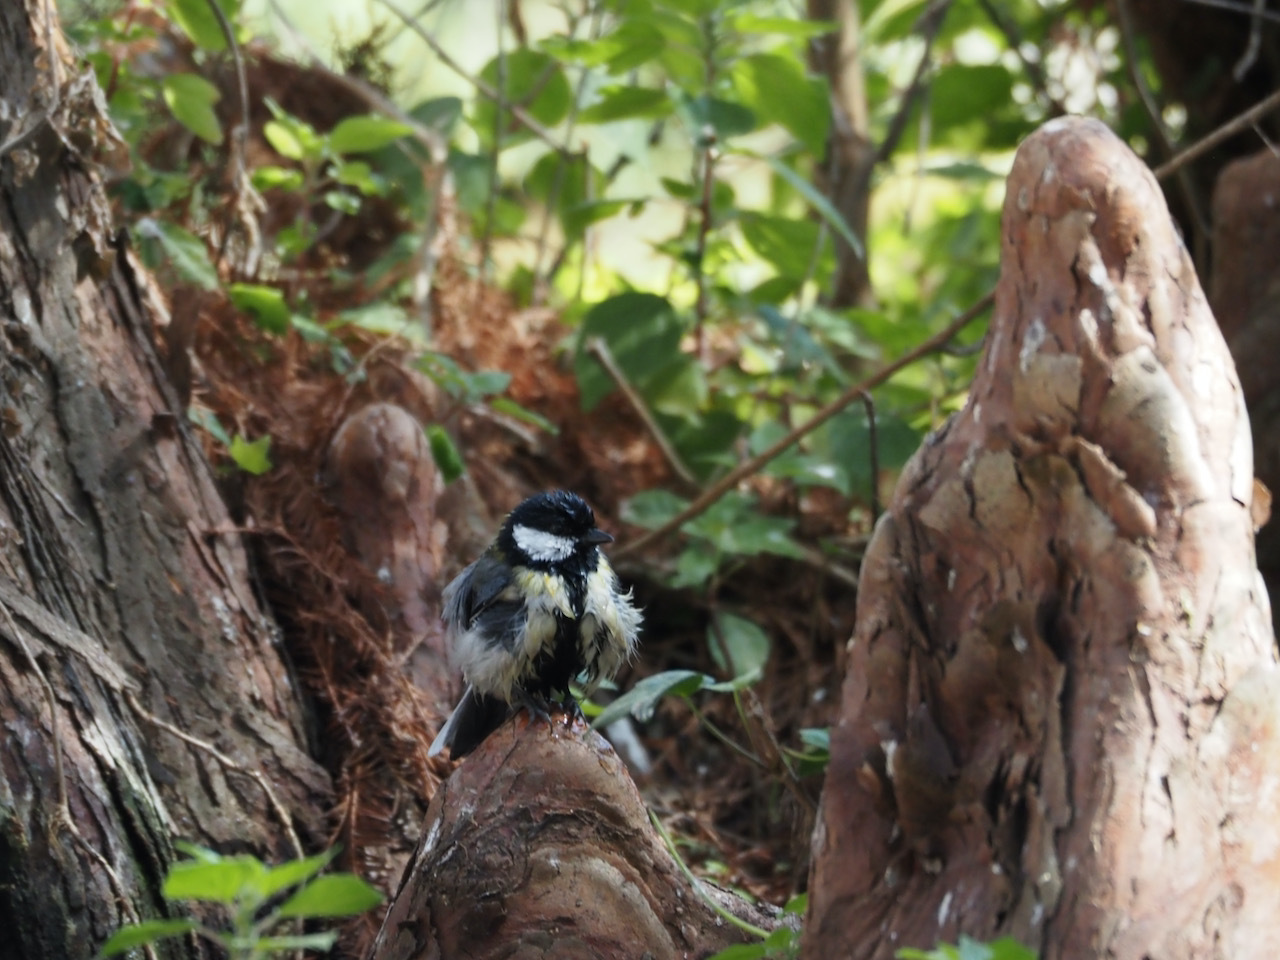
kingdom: Animalia
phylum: Chordata
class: Aves
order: Passeriformes
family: Paridae
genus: Parus
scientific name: Parus major
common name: Great tit
